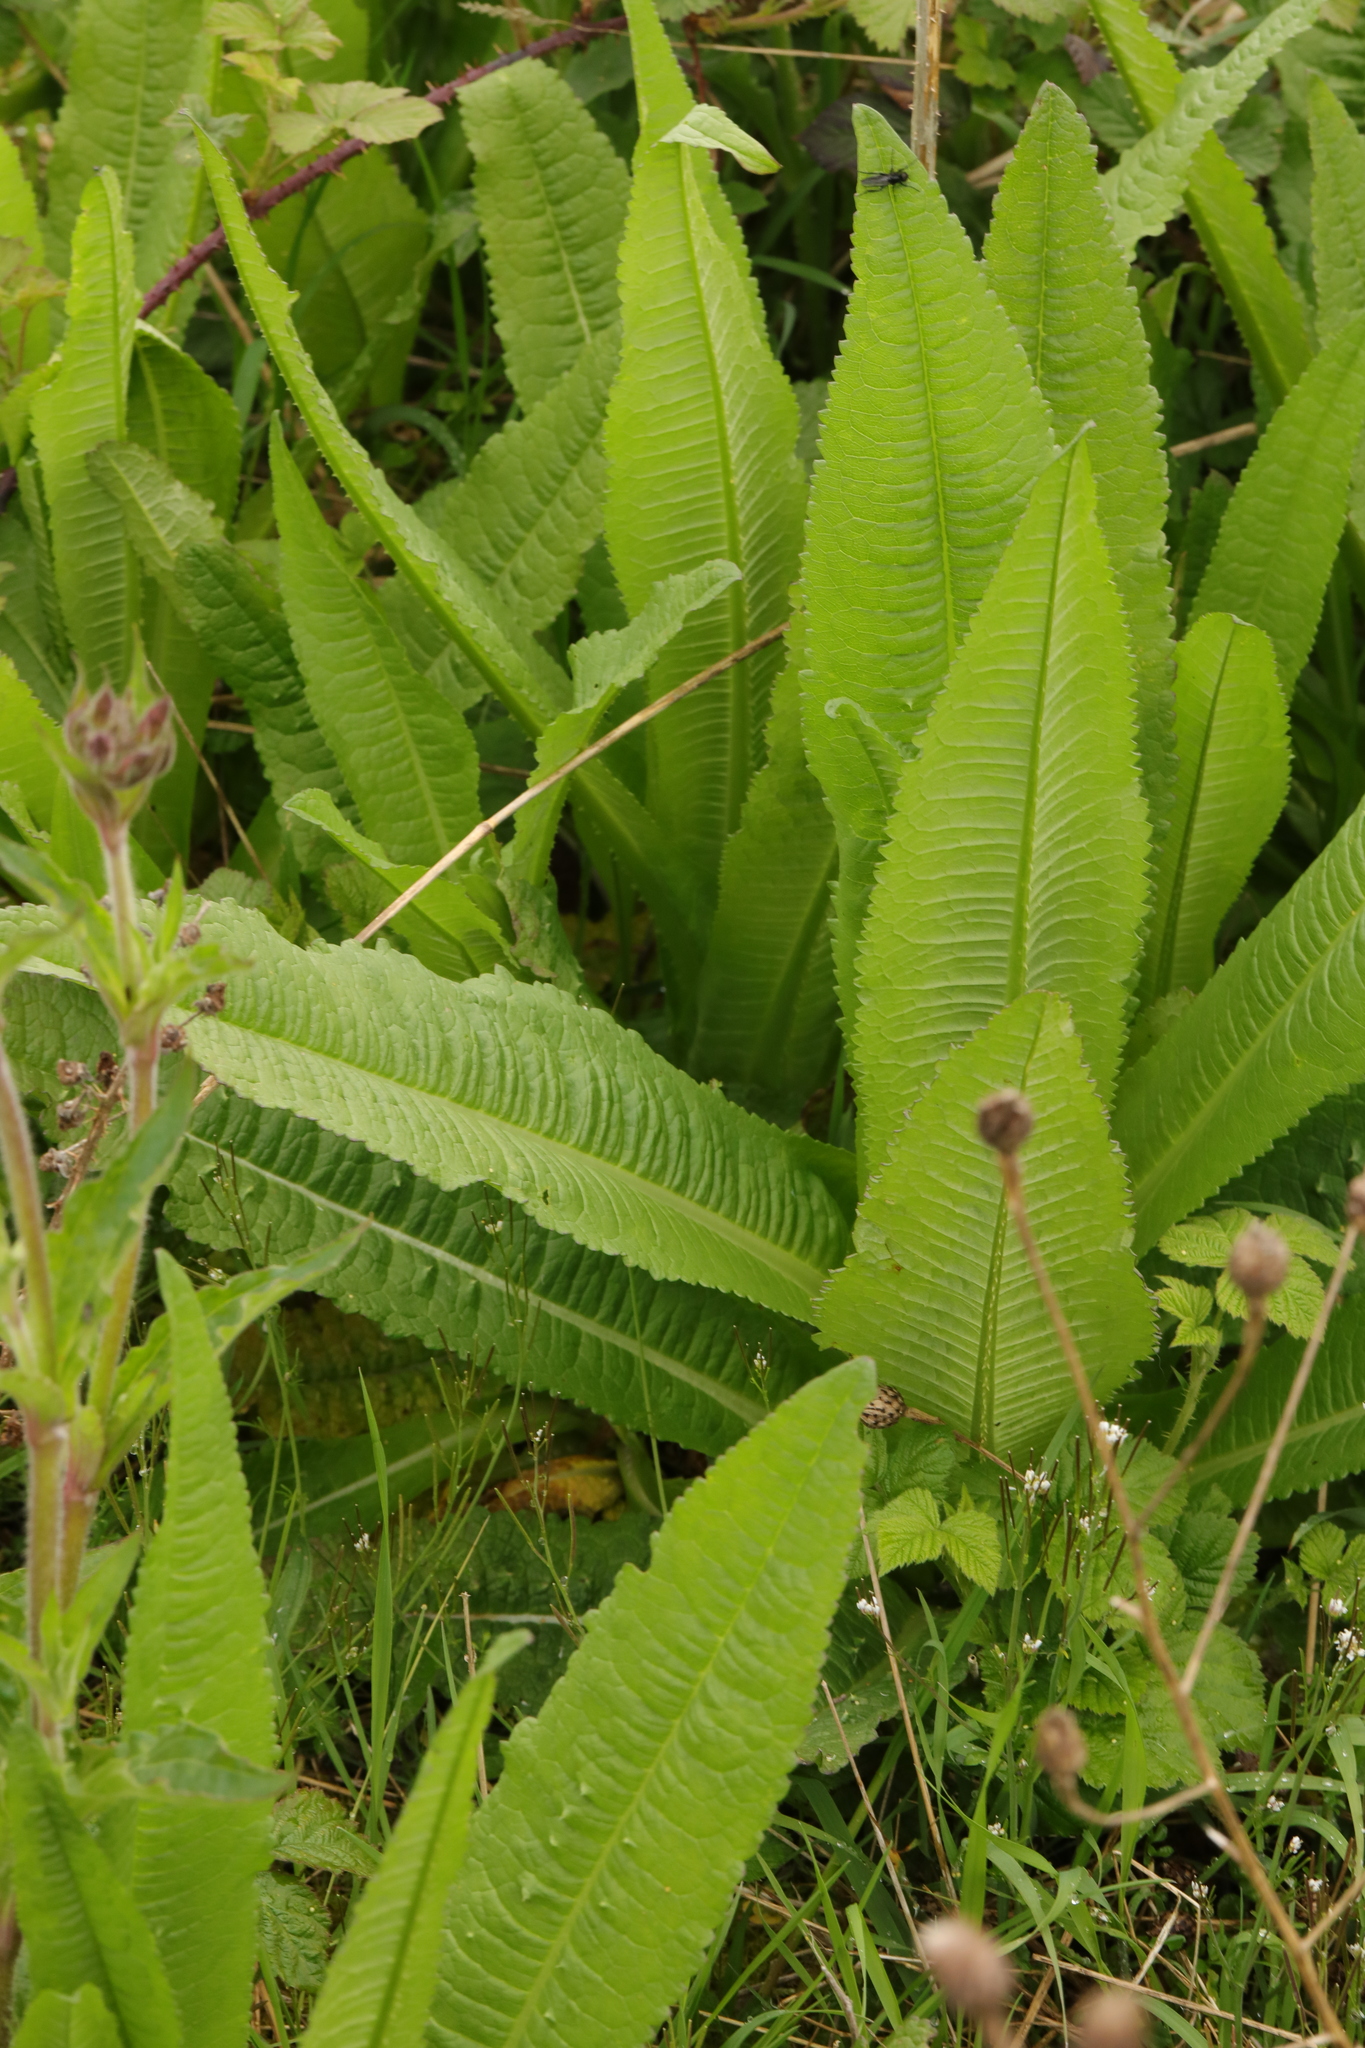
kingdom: Plantae
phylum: Tracheophyta
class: Magnoliopsida
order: Dipsacales
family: Caprifoliaceae
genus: Dipsacus
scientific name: Dipsacus fullonum
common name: Teasel
